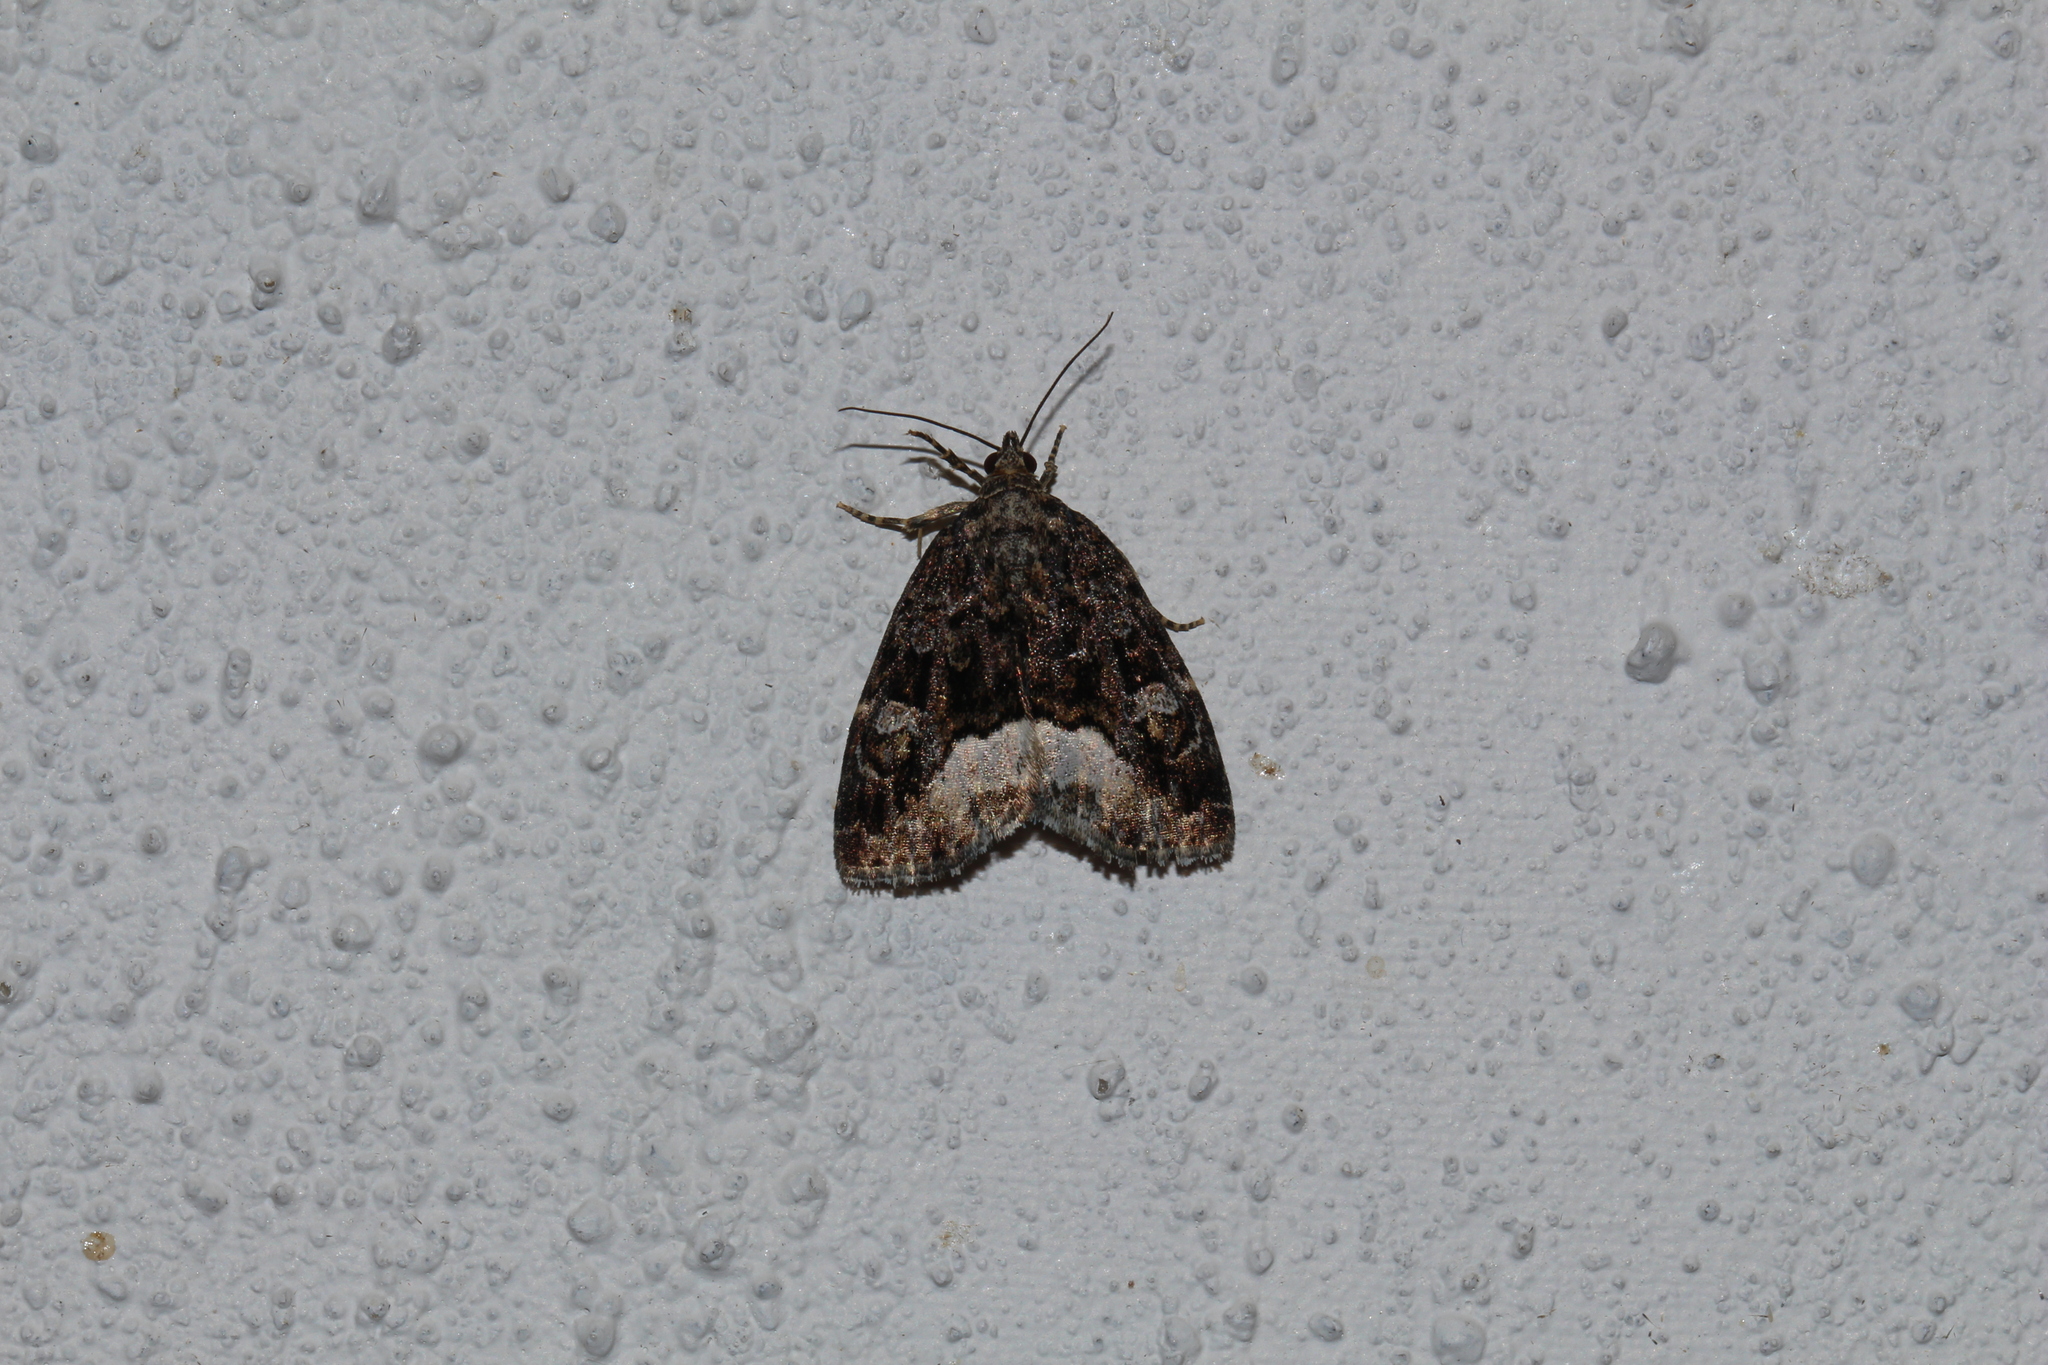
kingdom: Animalia
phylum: Arthropoda
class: Insecta
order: Lepidoptera
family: Noctuidae
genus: Deltote
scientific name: Deltote pygarga
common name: Marbled white spot
